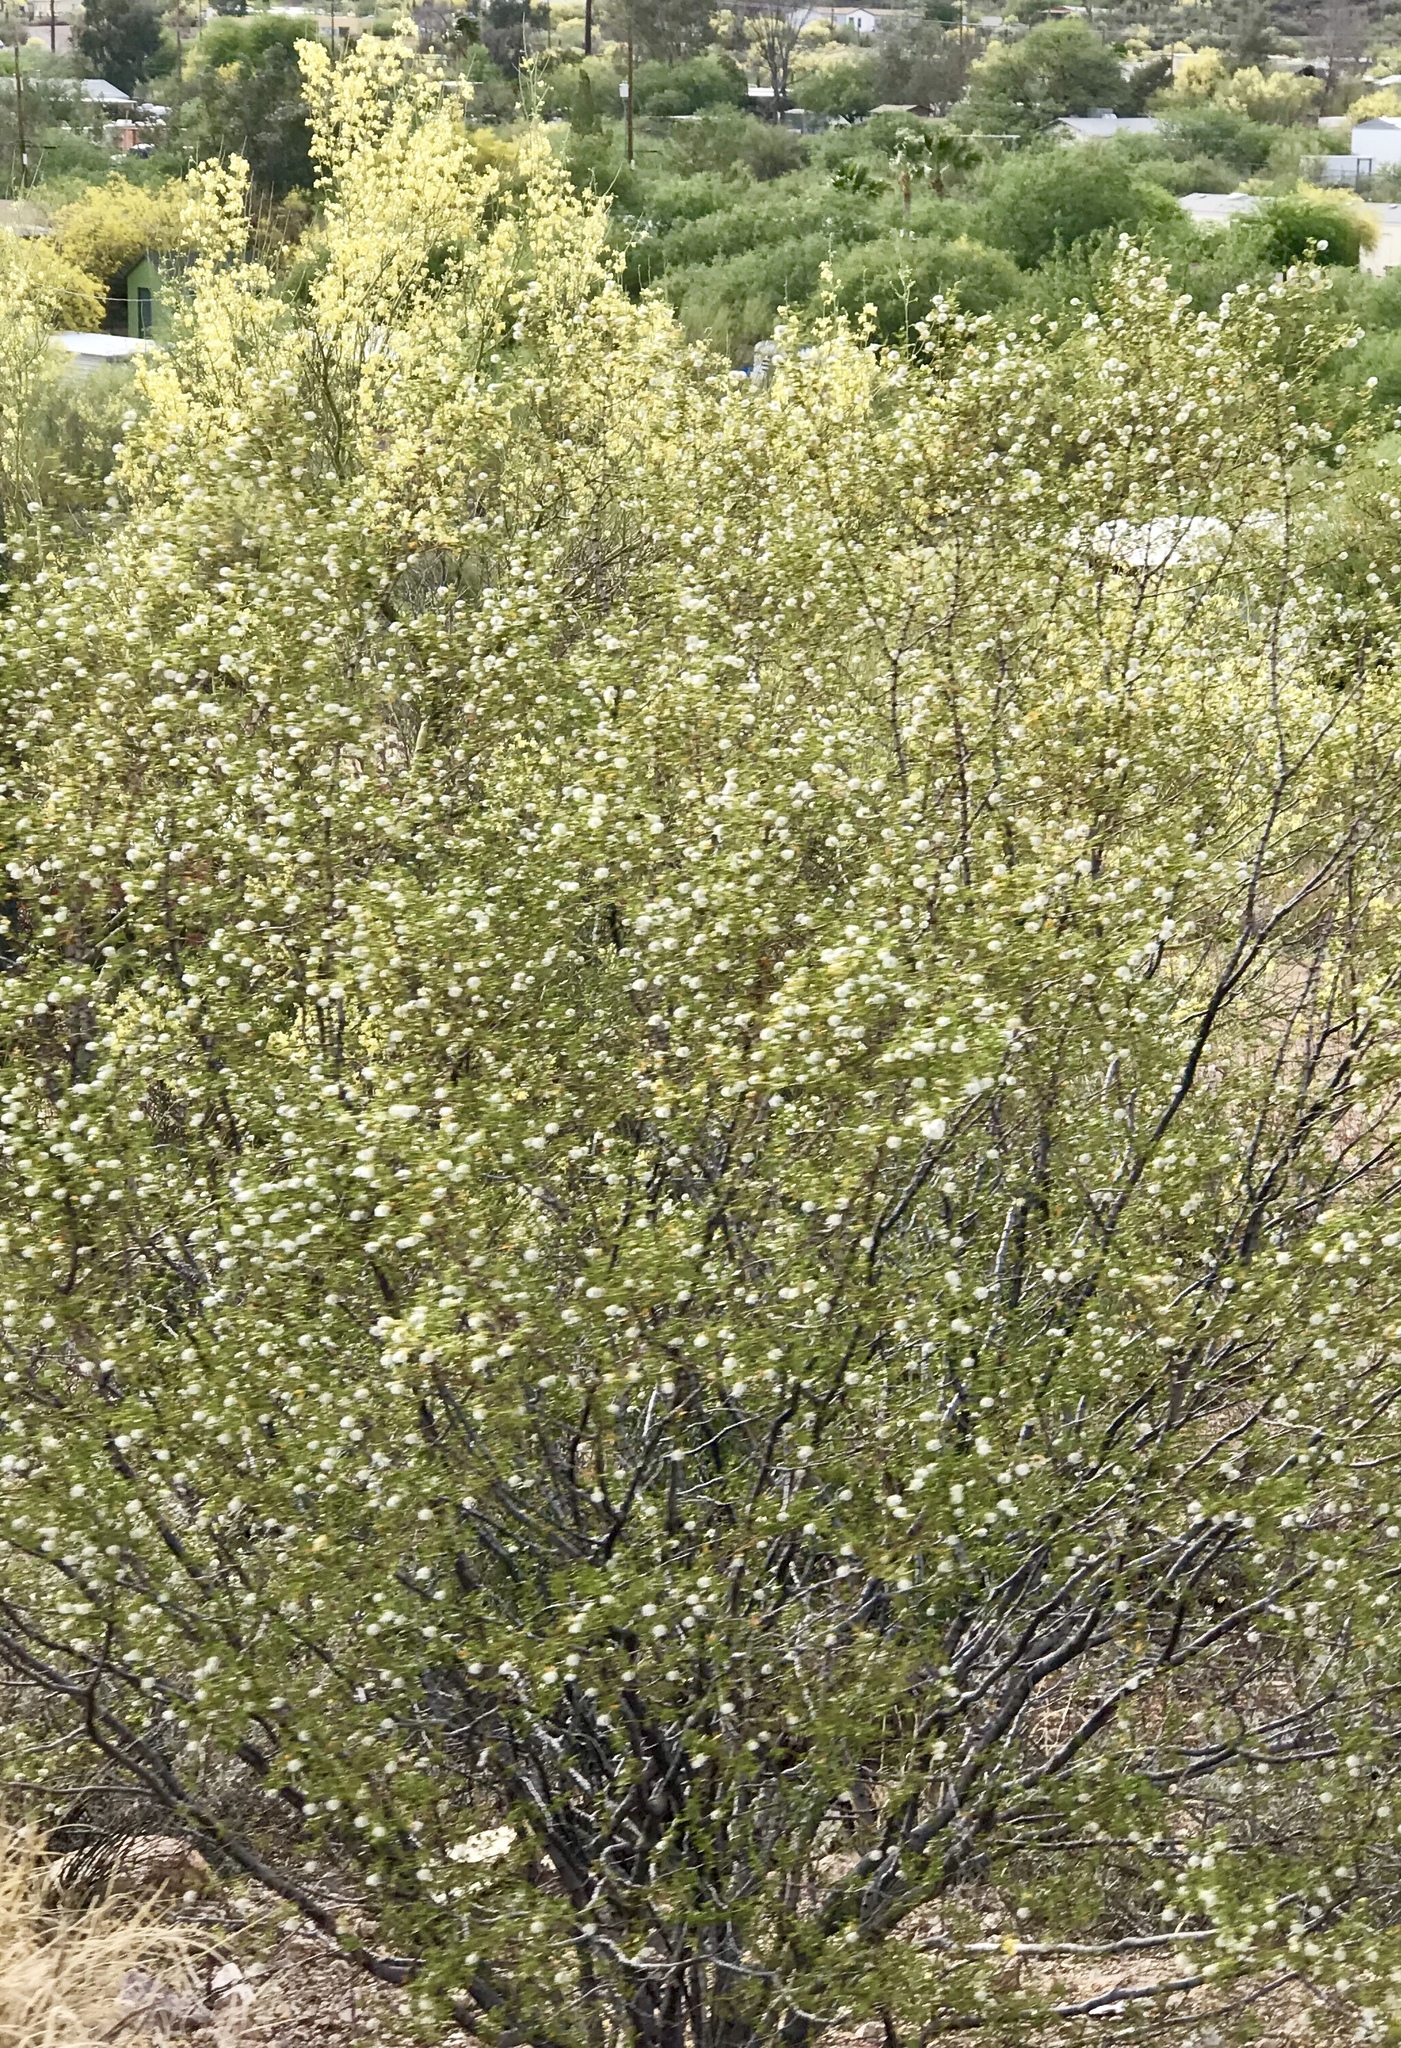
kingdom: Plantae
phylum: Tracheophyta
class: Magnoliopsida
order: Zygophyllales
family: Zygophyllaceae
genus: Larrea
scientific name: Larrea tridentata
